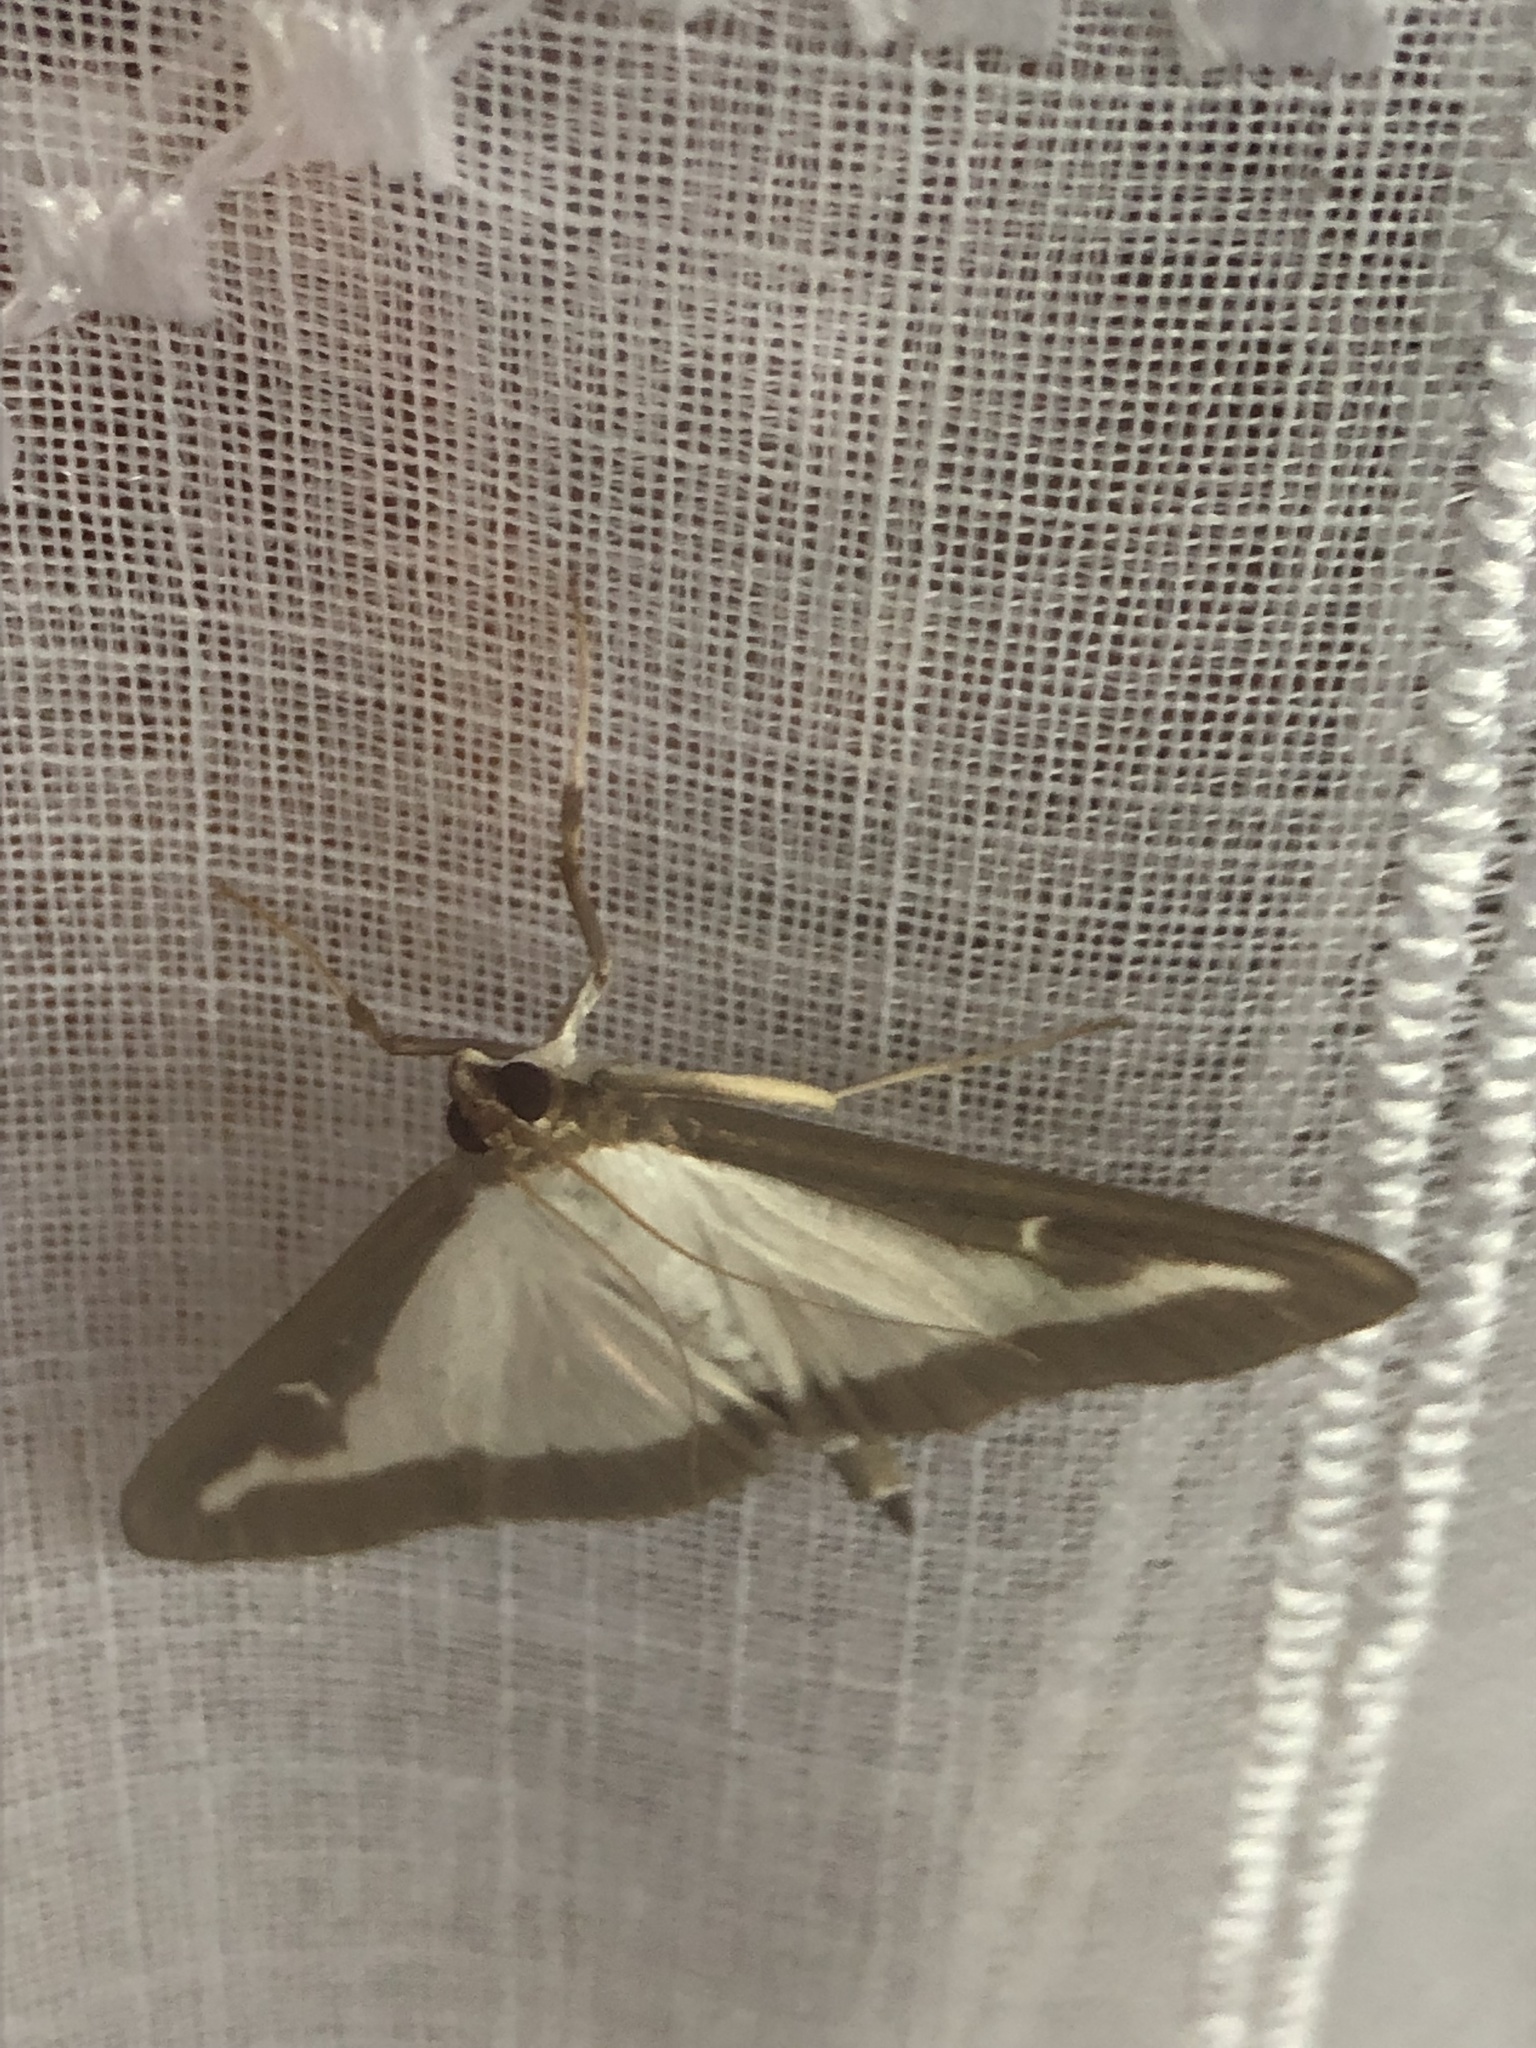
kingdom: Animalia
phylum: Arthropoda
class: Insecta
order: Lepidoptera
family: Crambidae
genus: Cydalima
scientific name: Cydalima perspectalis
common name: Box tree moth
